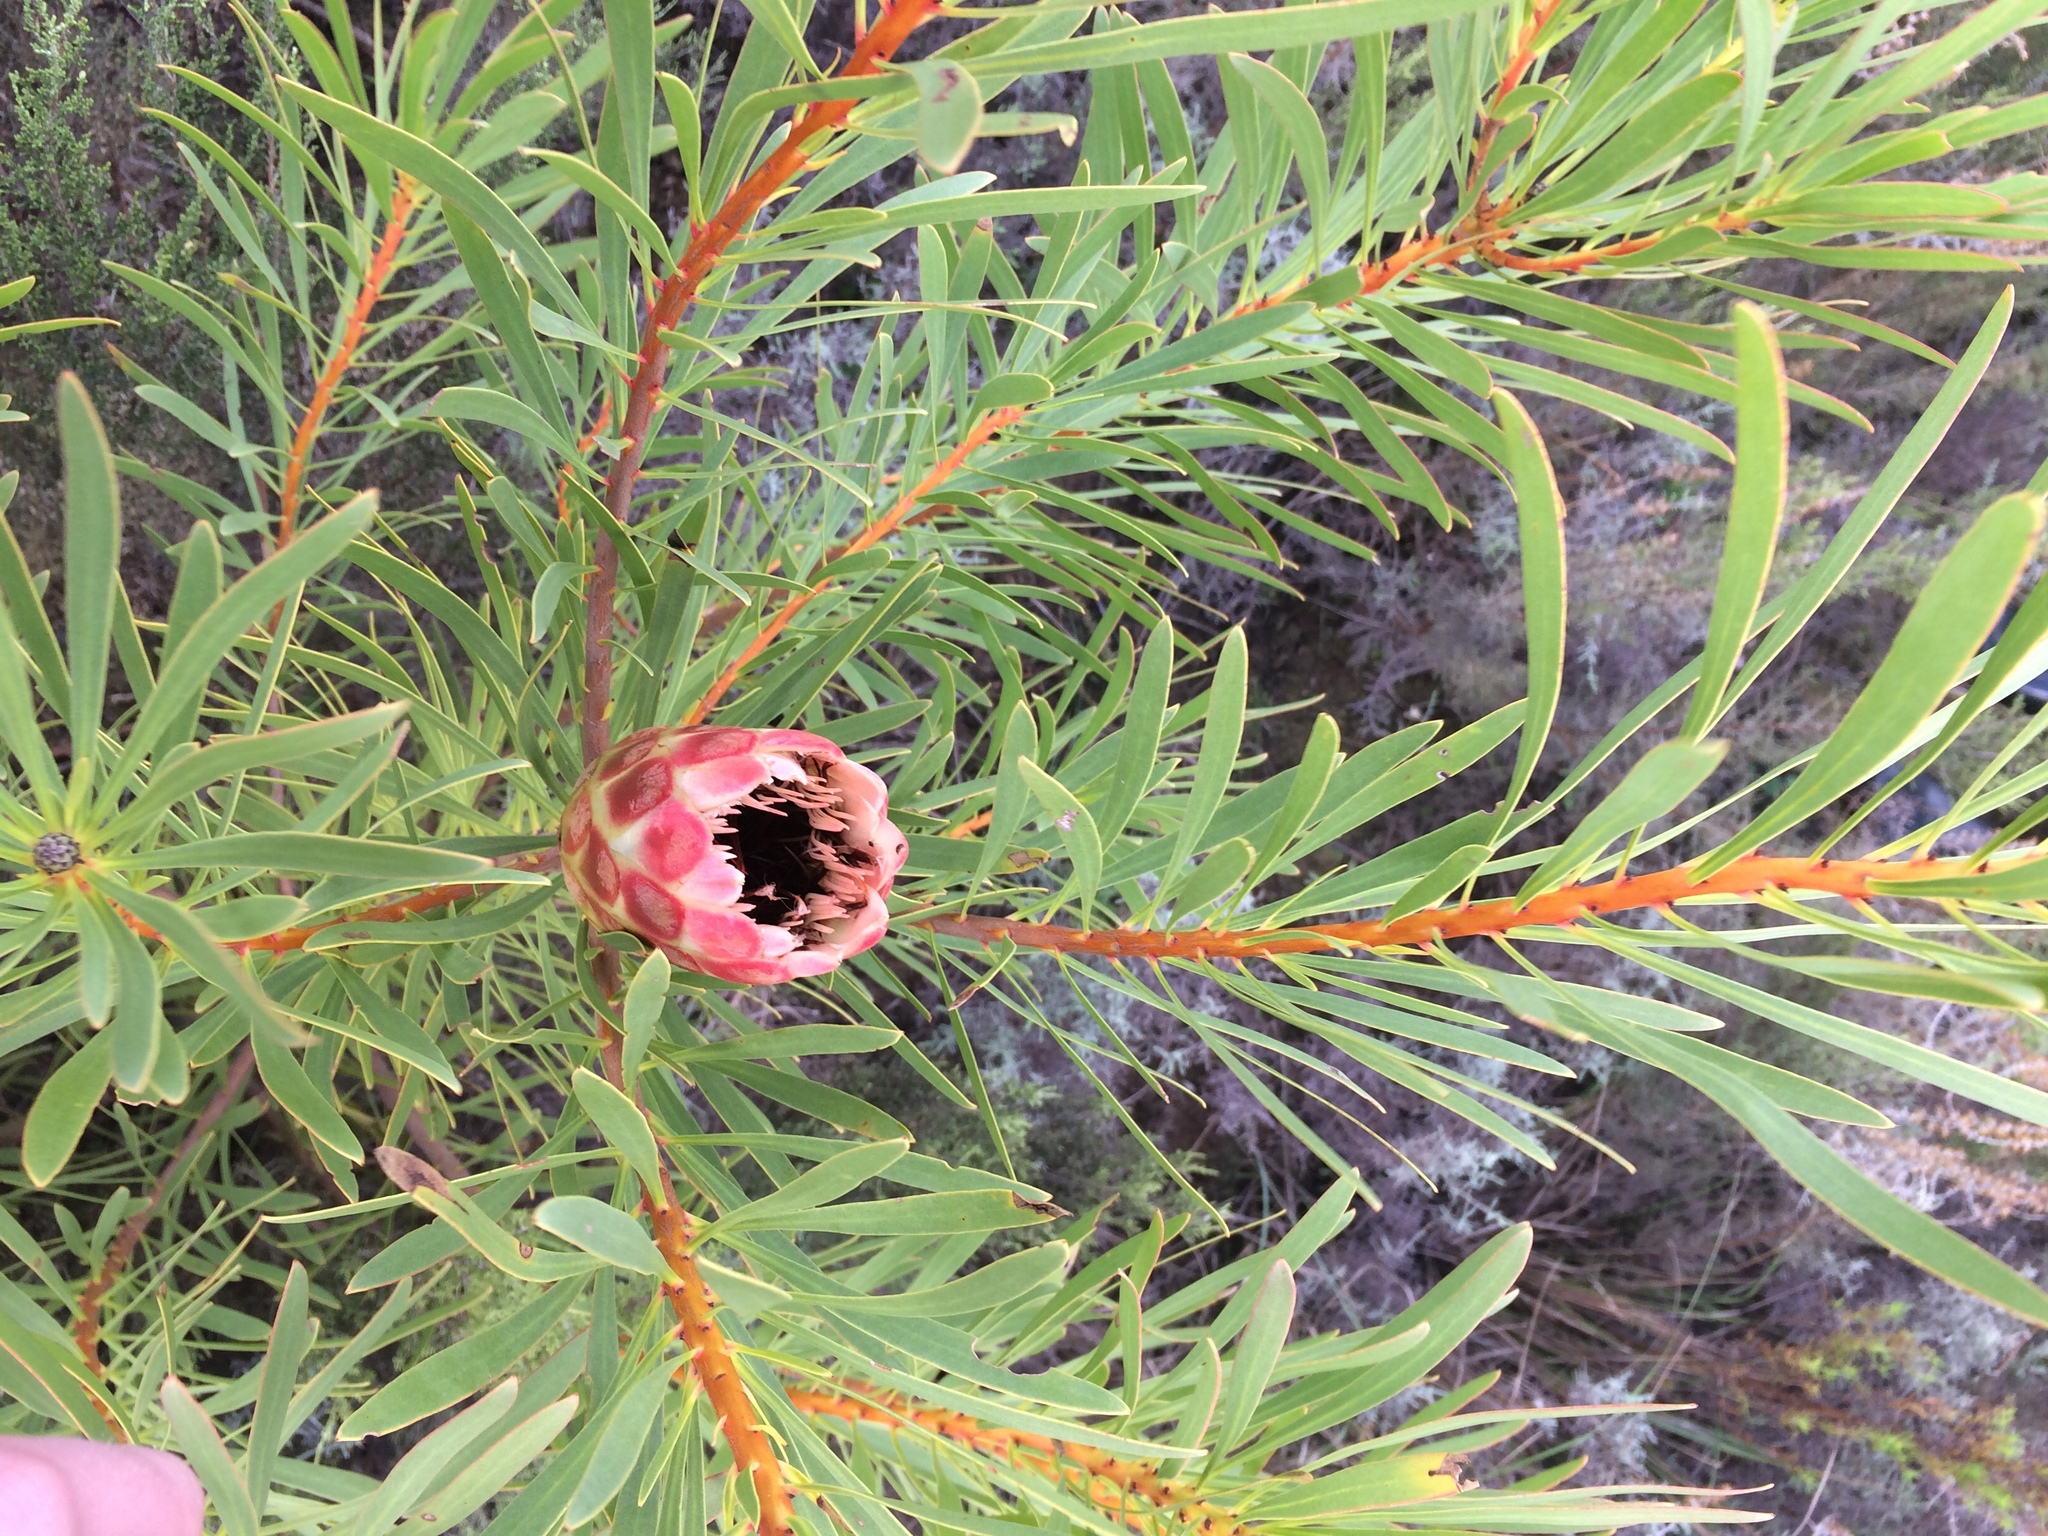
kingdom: Plantae
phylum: Tracheophyta
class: Magnoliopsida
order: Proteales
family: Proteaceae
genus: Protea
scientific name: Protea repens
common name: Sugarbush
